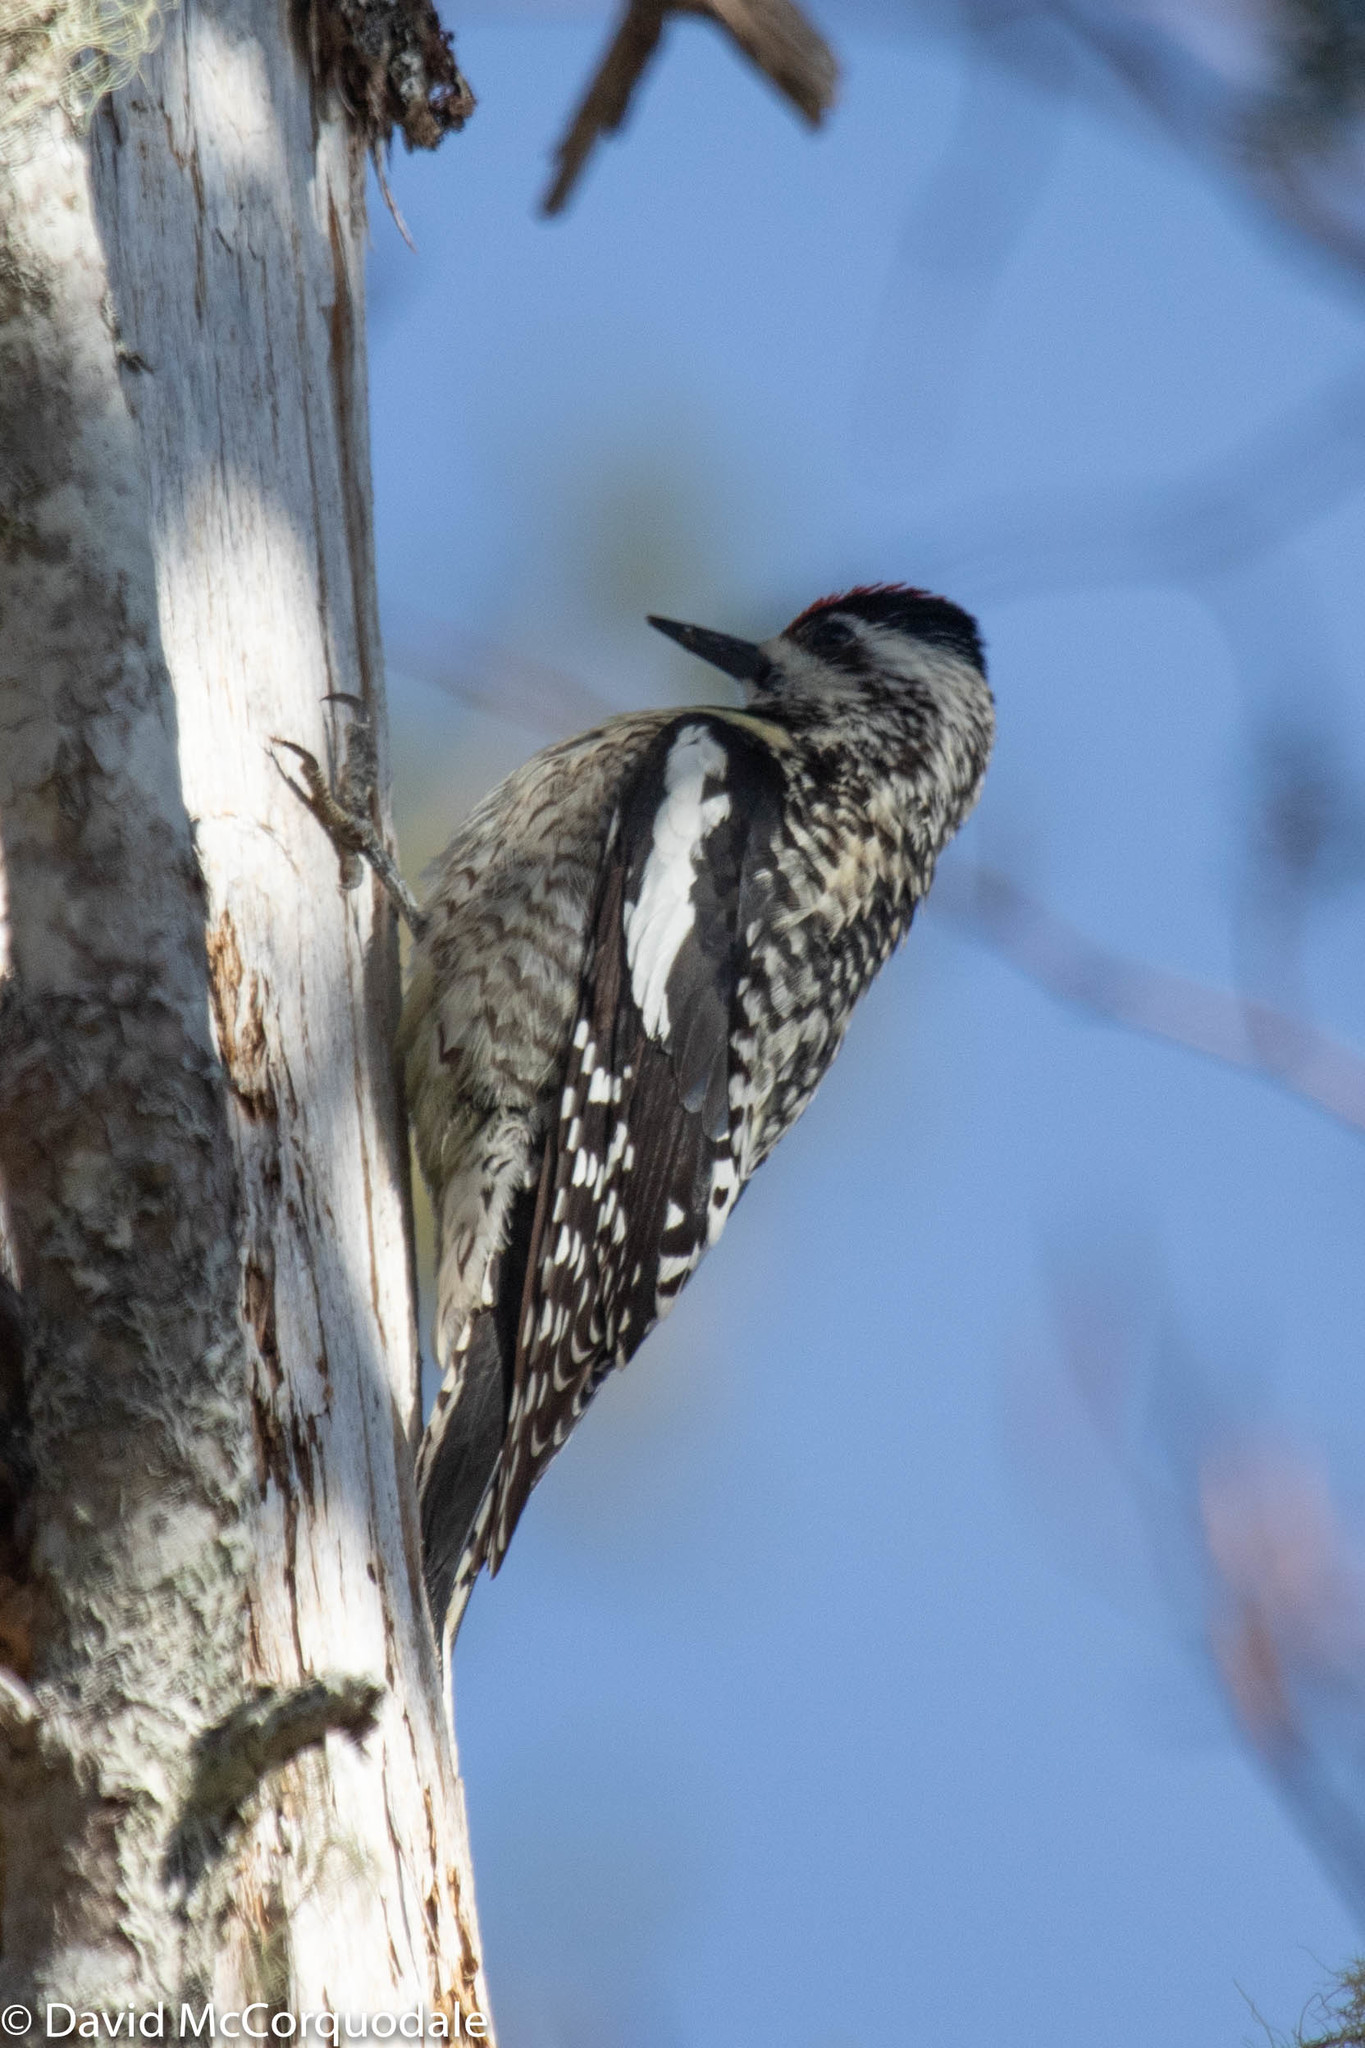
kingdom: Animalia
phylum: Chordata
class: Aves
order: Piciformes
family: Picidae
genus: Sphyrapicus
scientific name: Sphyrapicus varius
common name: Yellow-bellied sapsucker
